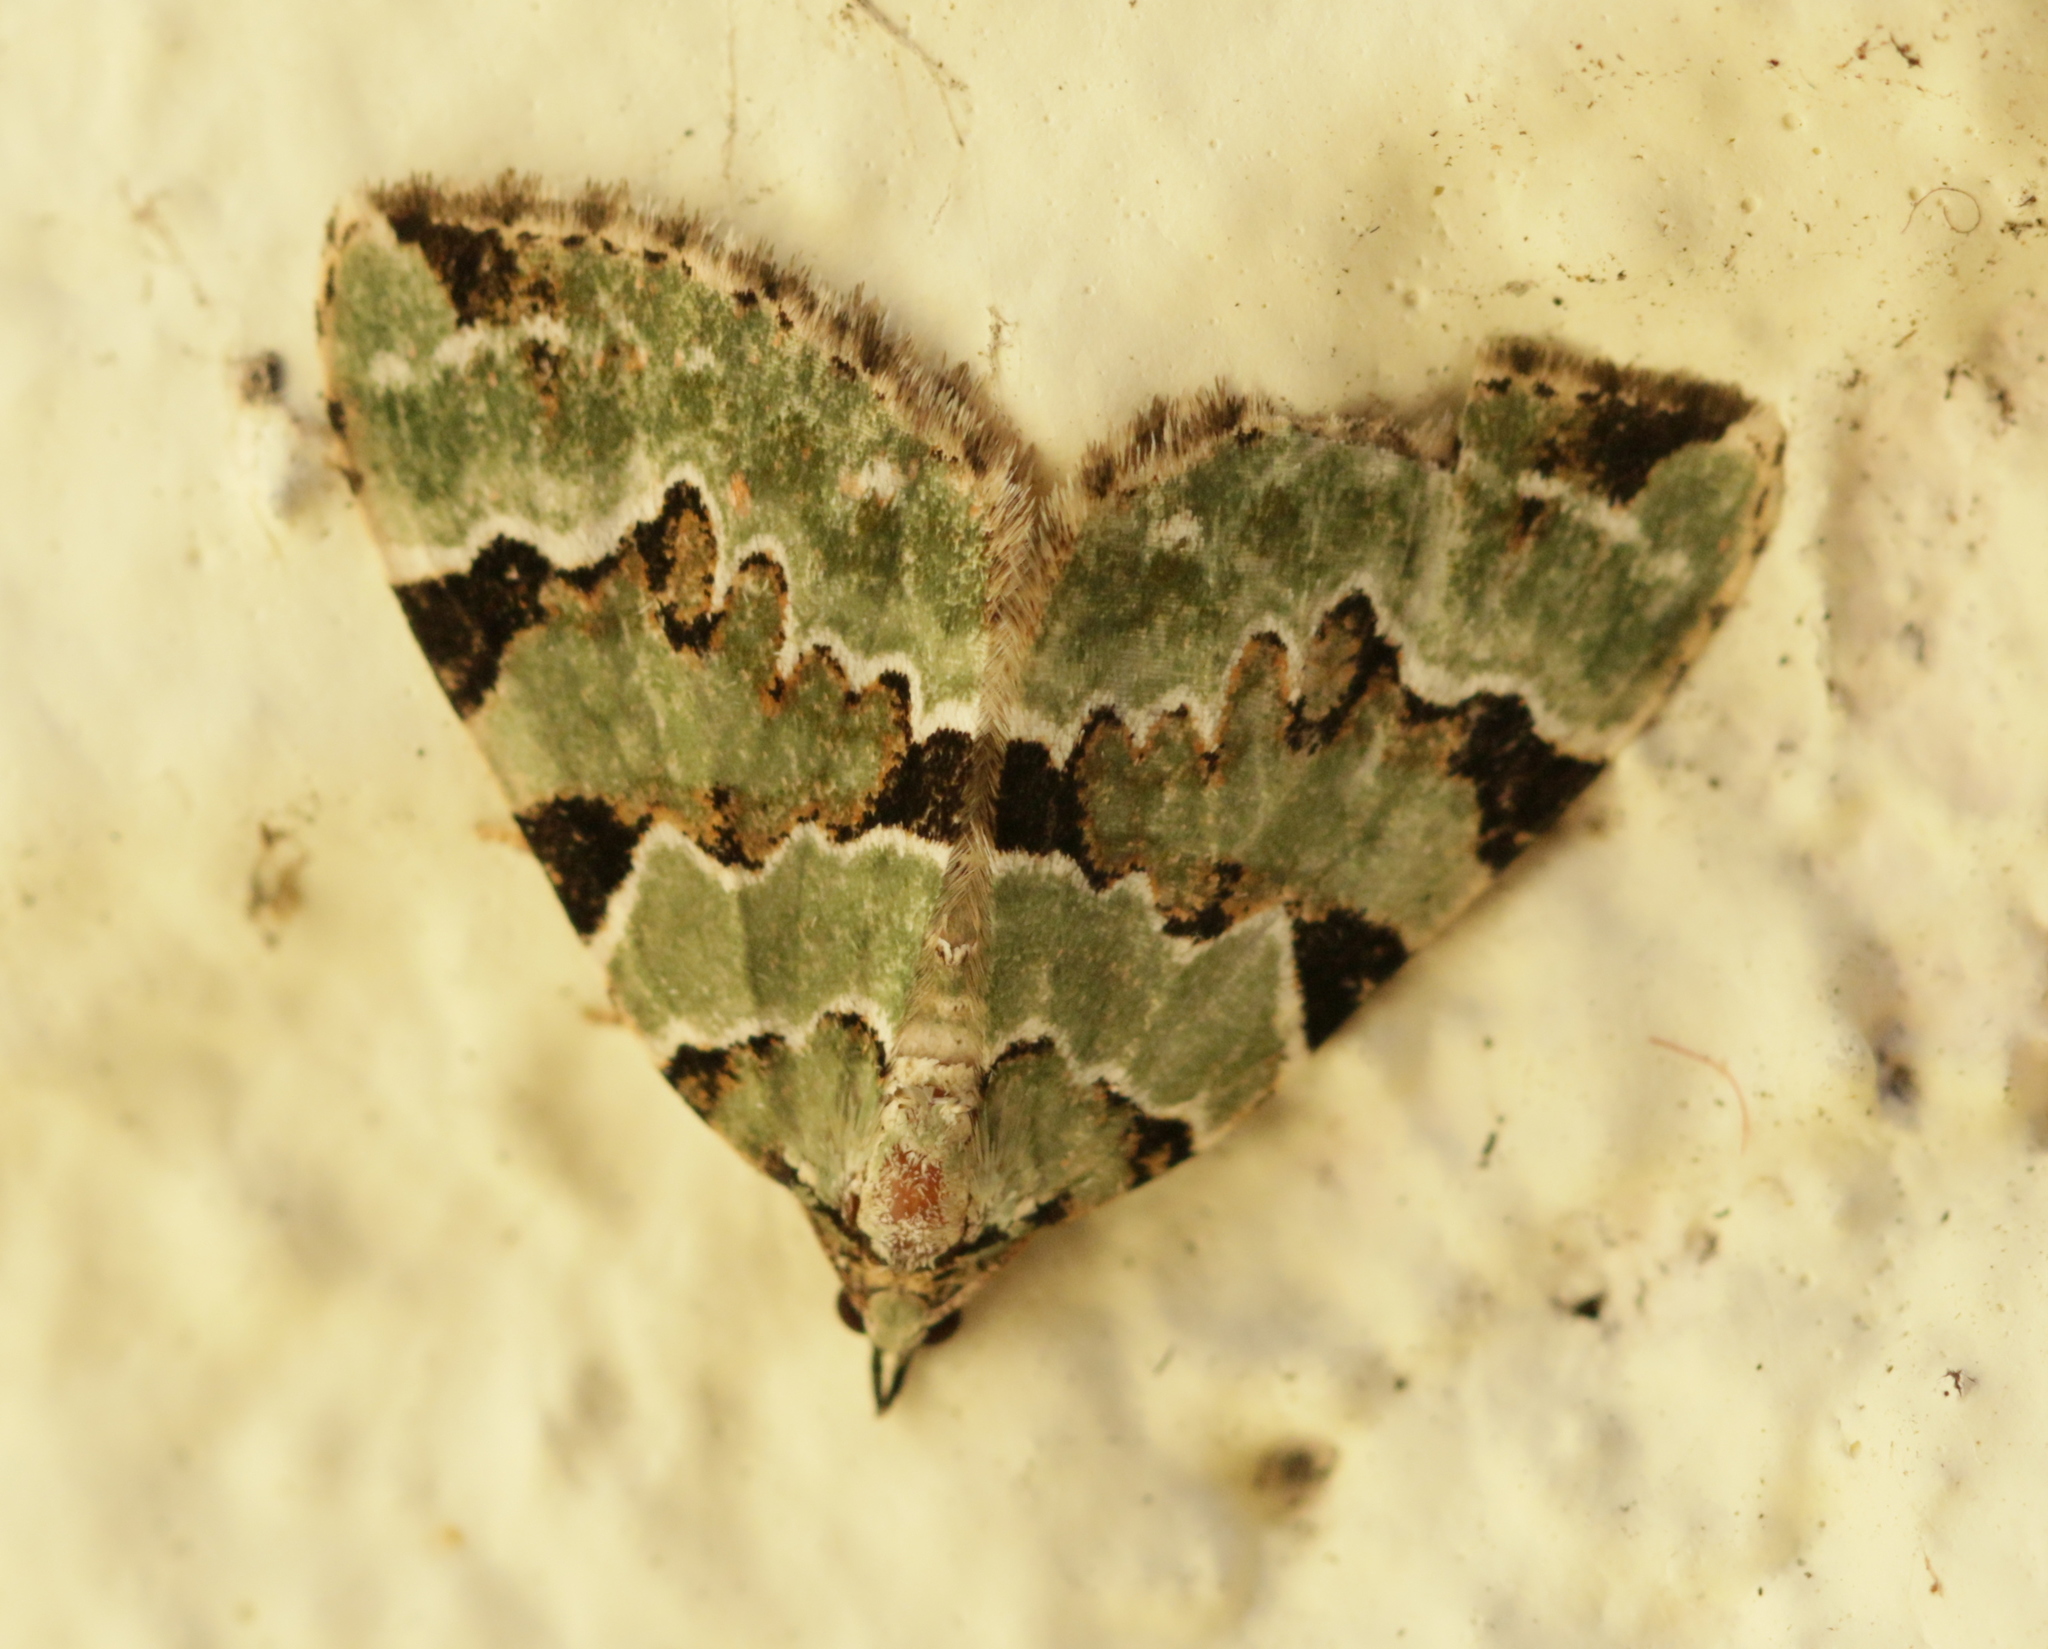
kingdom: Animalia
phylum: Arthropoda
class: Insecta
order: Lepidoptera
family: Geometridae
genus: Colostygia
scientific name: Colostygia pectinataria
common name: Green carpet
